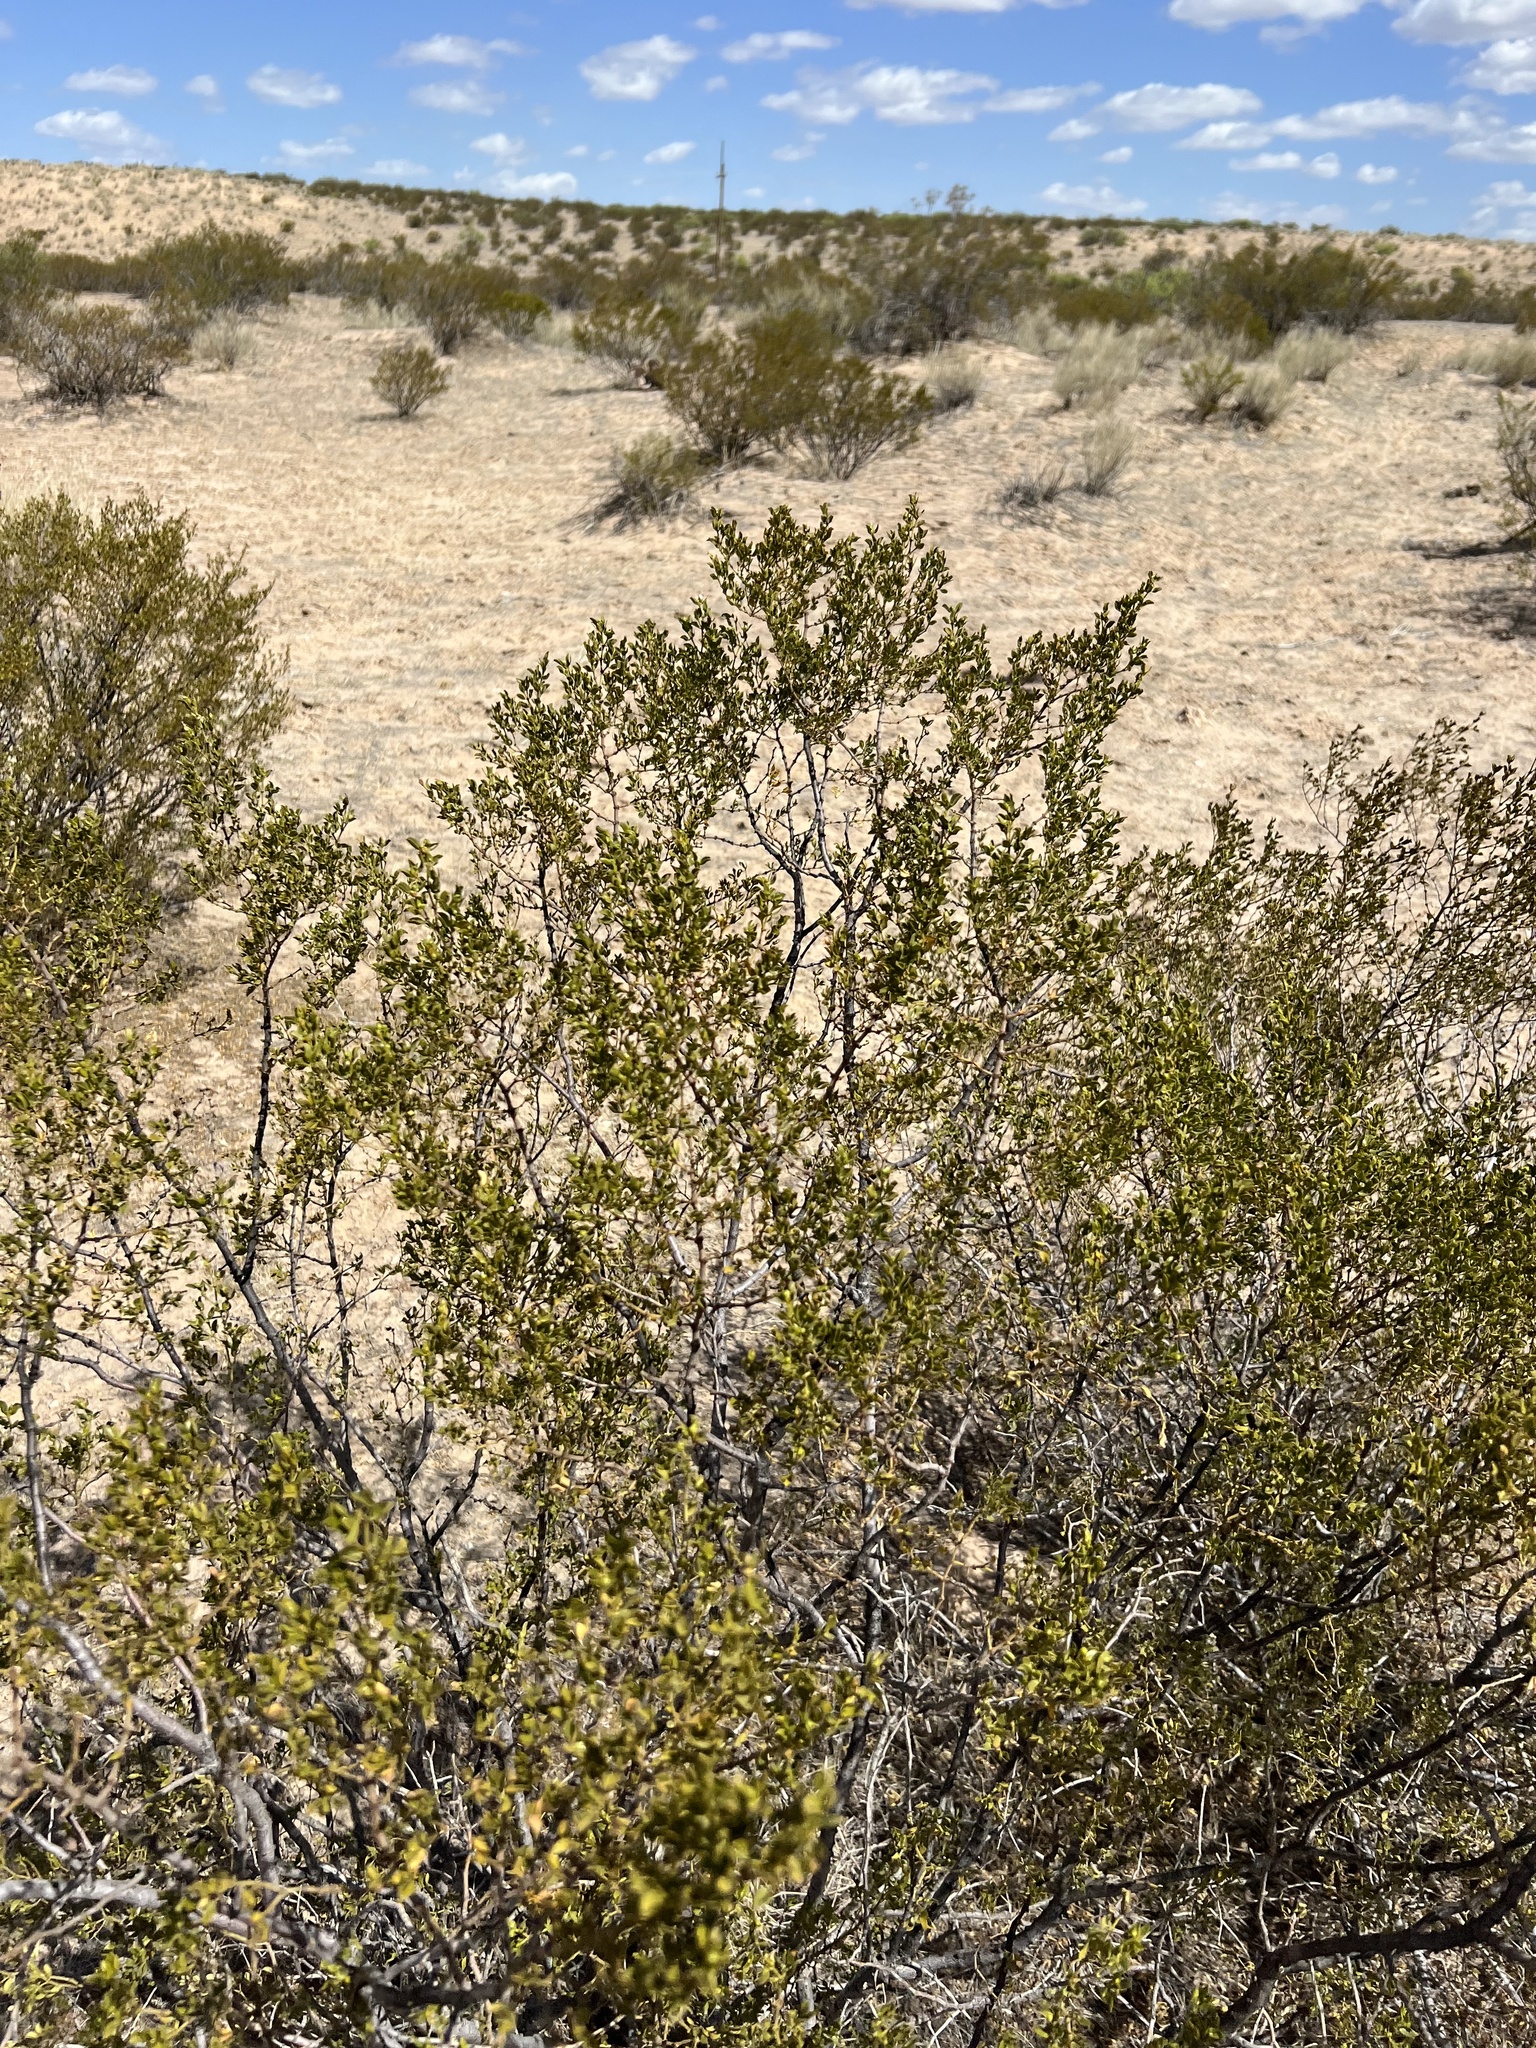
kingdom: Plantae
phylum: Tracheophyta
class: Magnoliopsida
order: Zygophyllales
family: Zygophyllaceae
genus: Larrea
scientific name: Larrea tridentata
